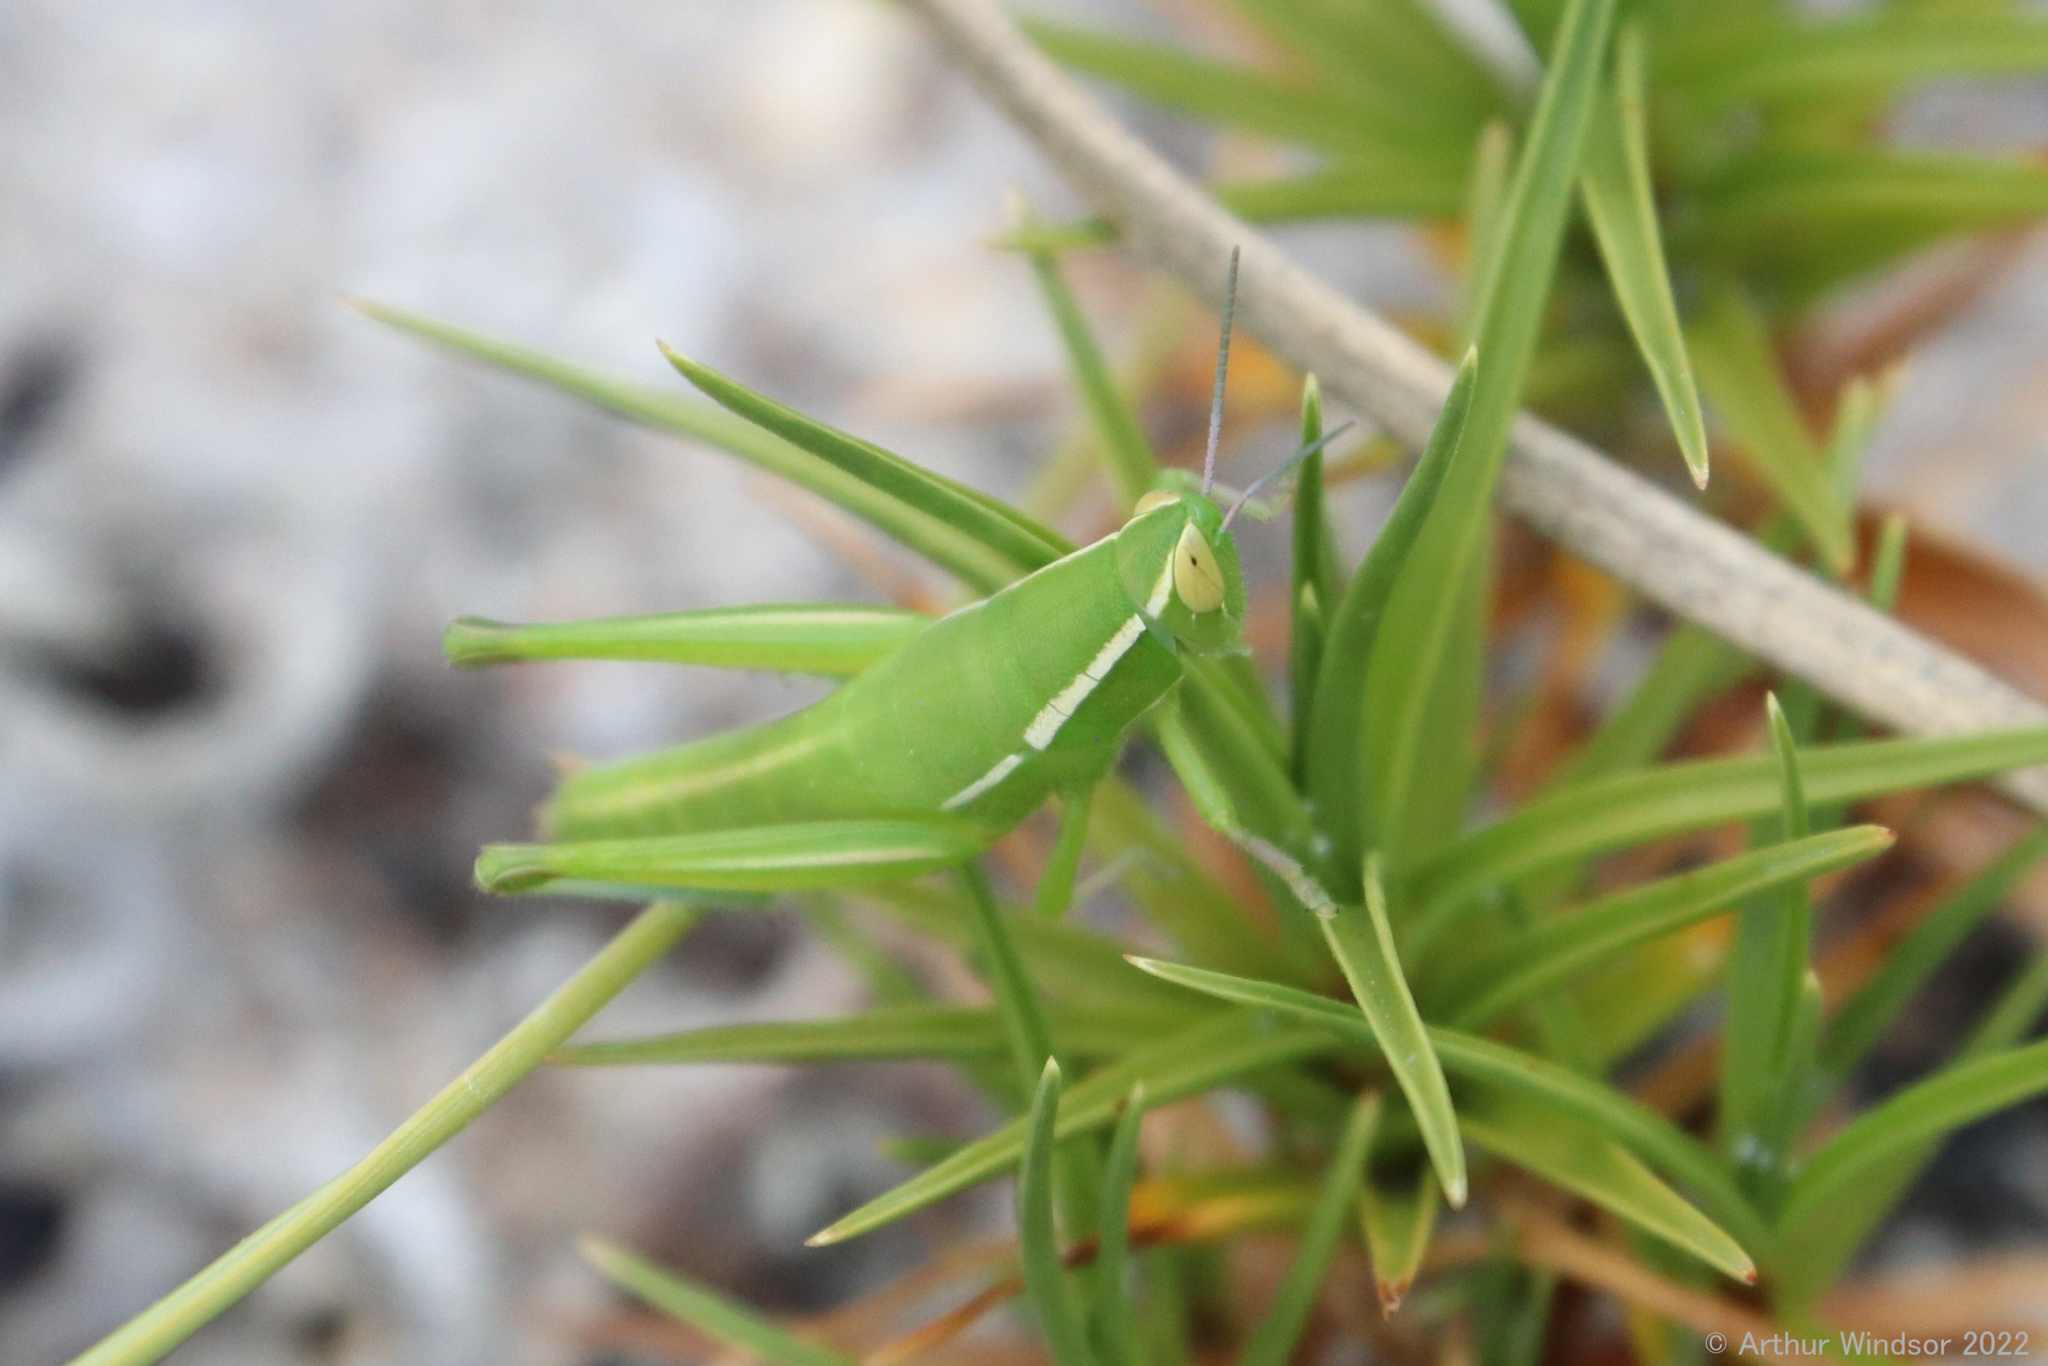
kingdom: Animalia
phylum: Arthropoda
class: Insecta
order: Orthoptera
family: Acrididae
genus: Aptenopedes
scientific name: Aptenopedes sphenarioides
